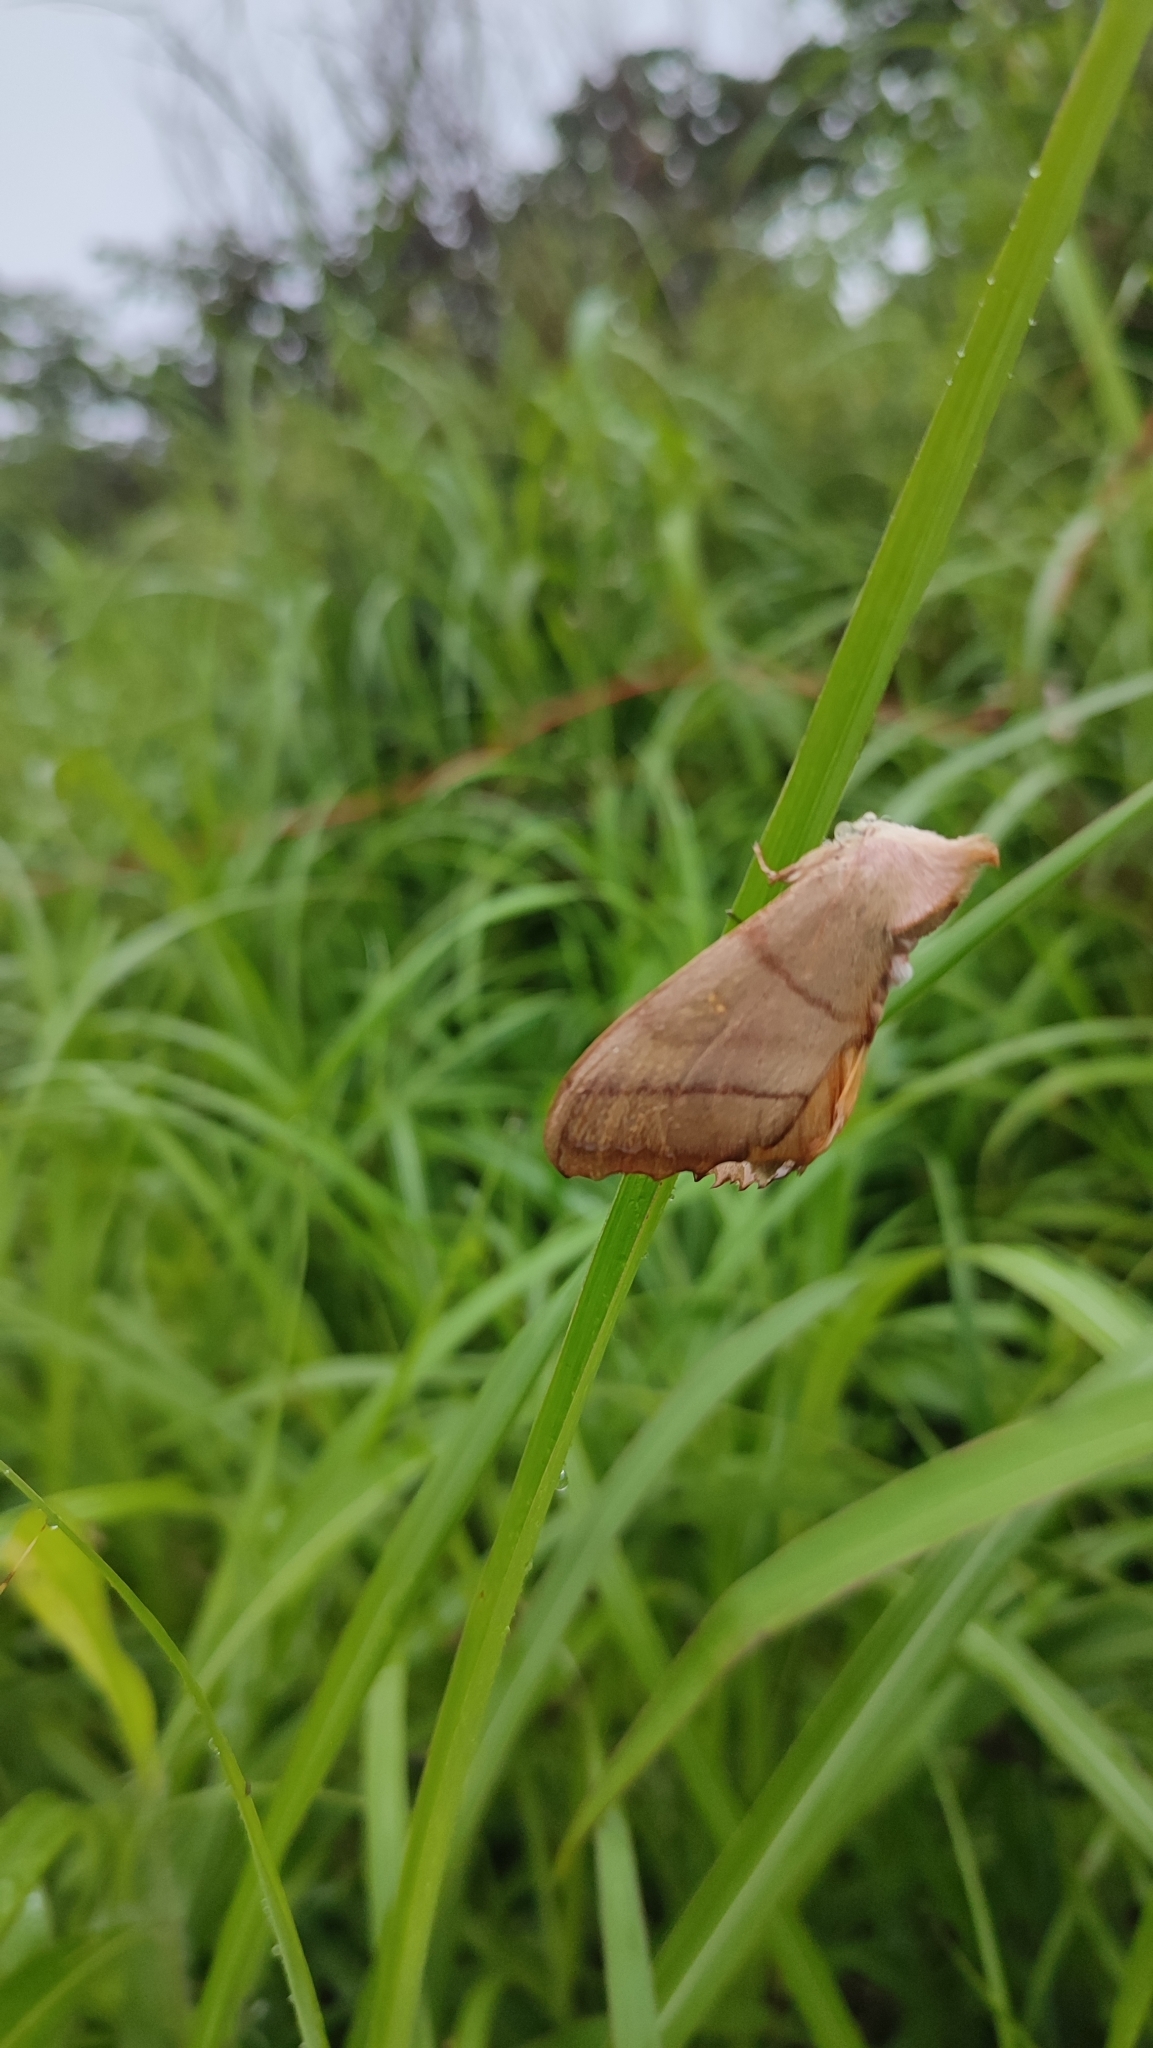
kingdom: Animalia
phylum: Arthropoda
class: Insecta
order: Lepidoptera
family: Notodontidae
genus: Euhampsonia
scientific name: Euhampsonia cristata
